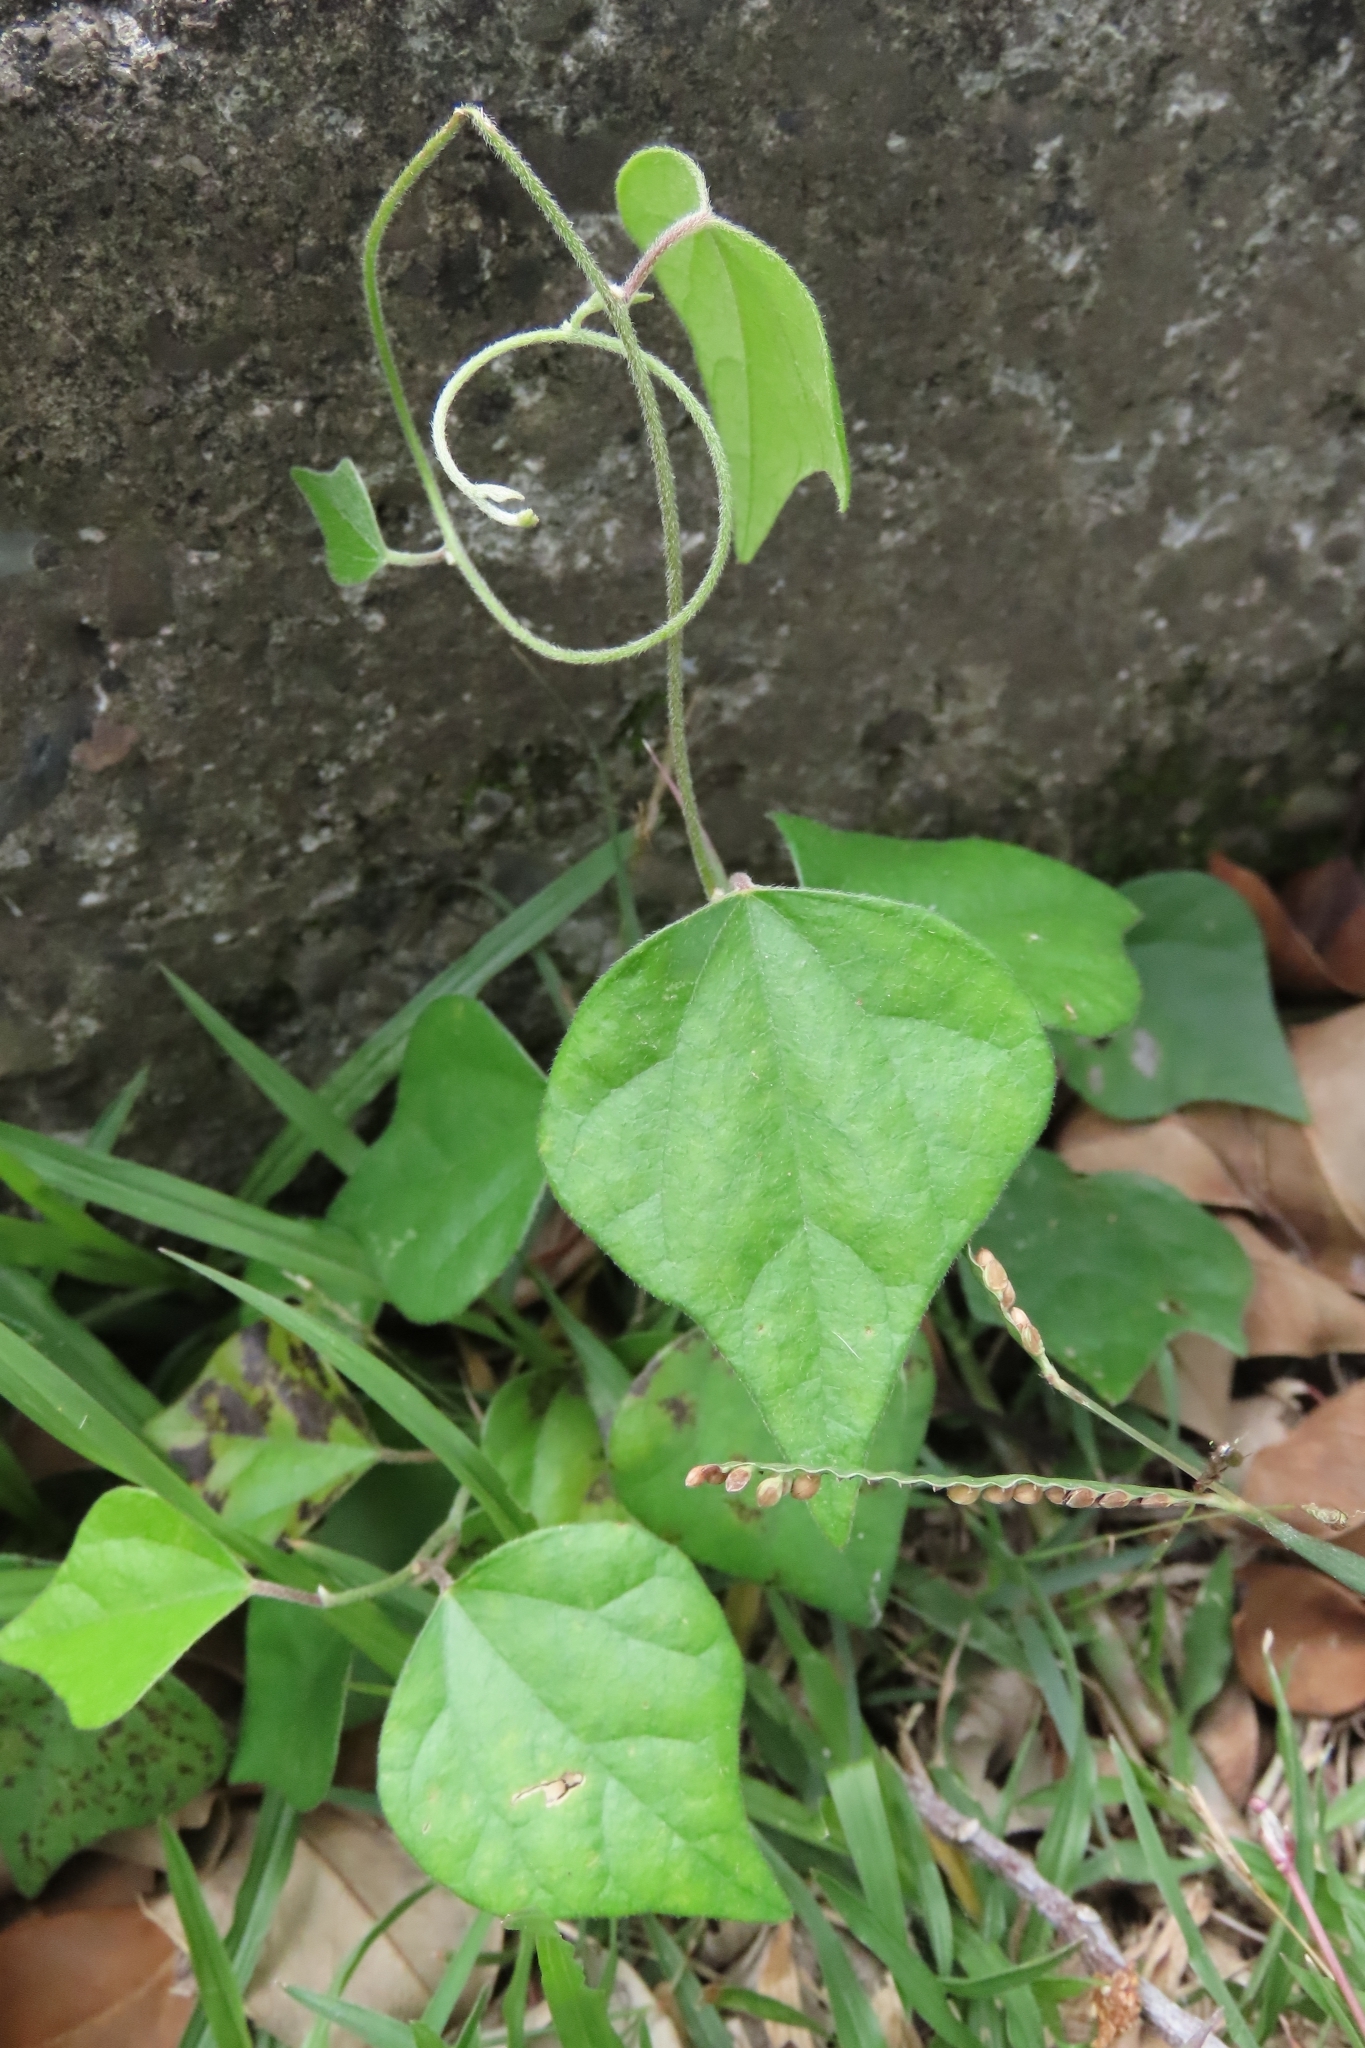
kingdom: Plantae
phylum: Tracheophyta
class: Magnoliopsida
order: Ranunculales
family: Menispermaceae
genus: Cocculus
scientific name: Cocculus orbiculatus
